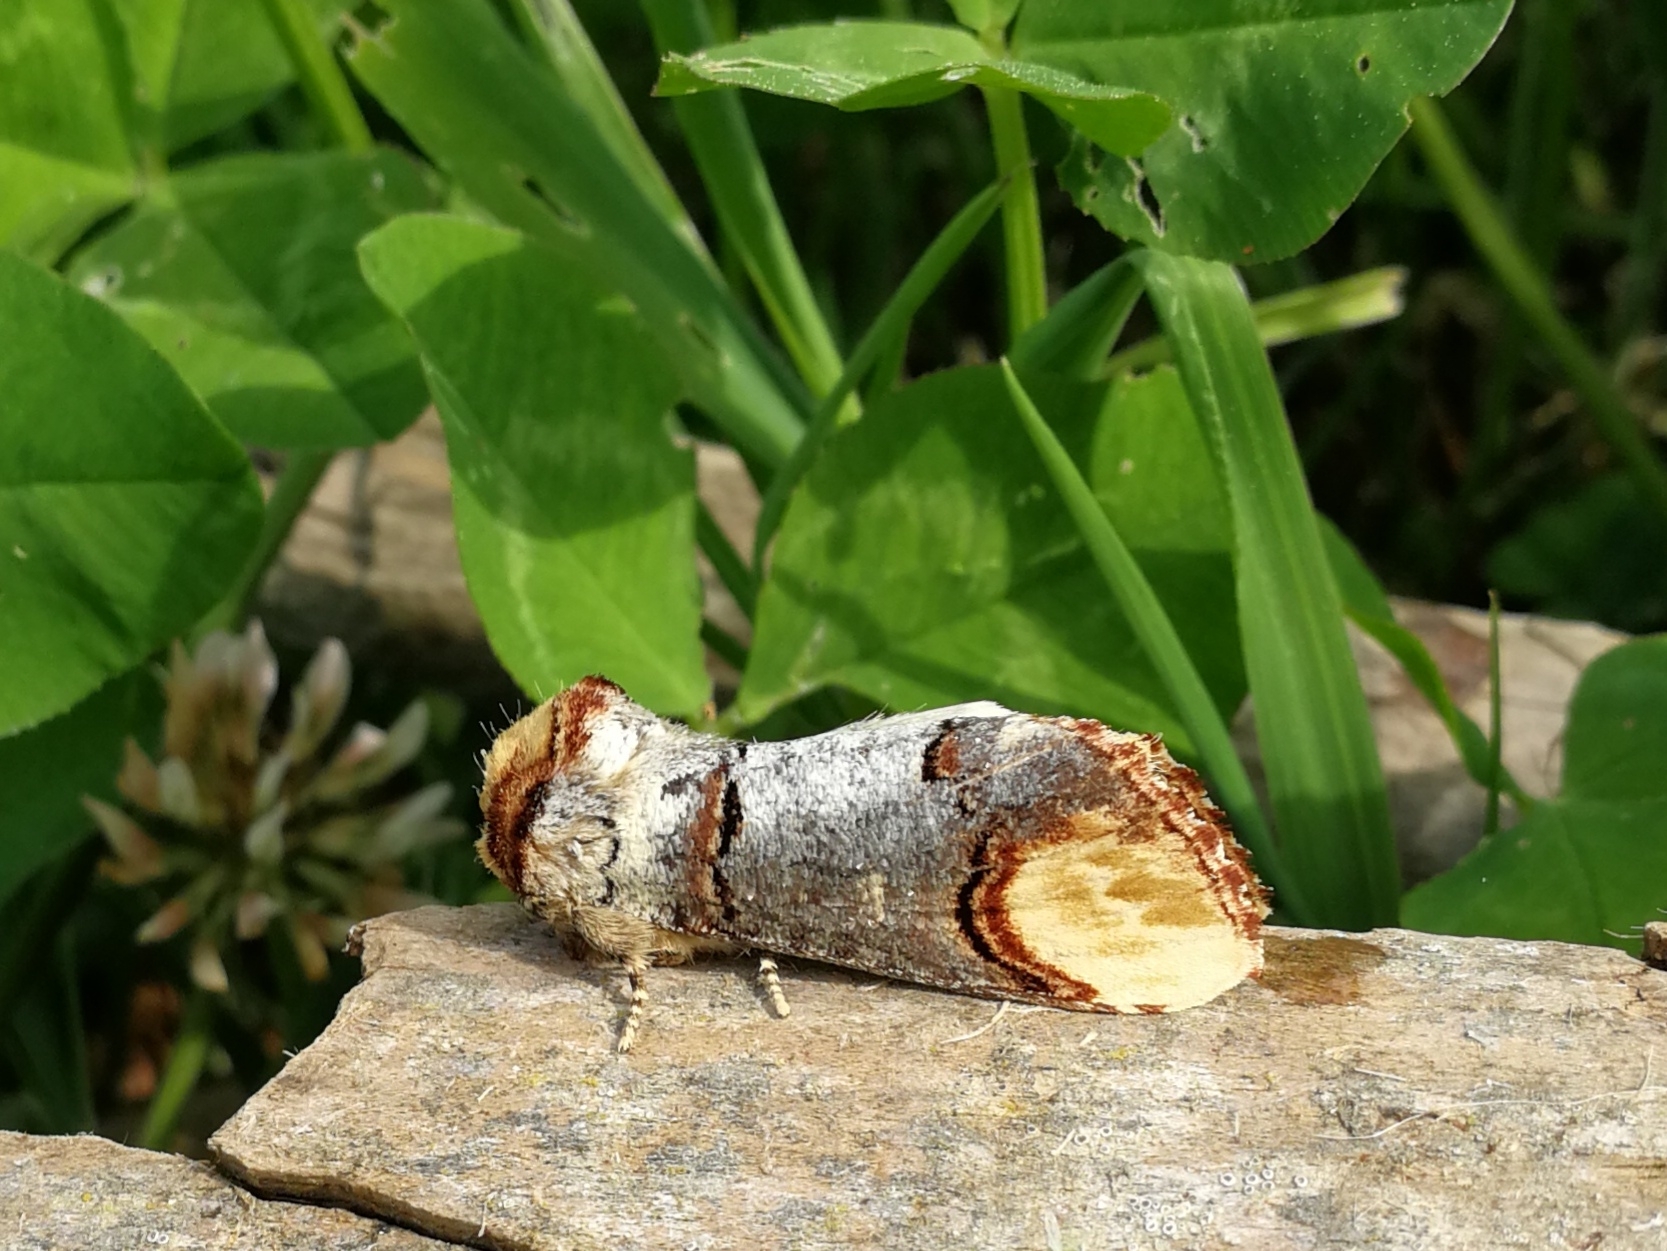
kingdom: Animalia
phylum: Arthropoda
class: Insecta
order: Lepidoptera
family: Notodontidae
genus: Phalera
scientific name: Phalera bucephala
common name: Buff-tip
